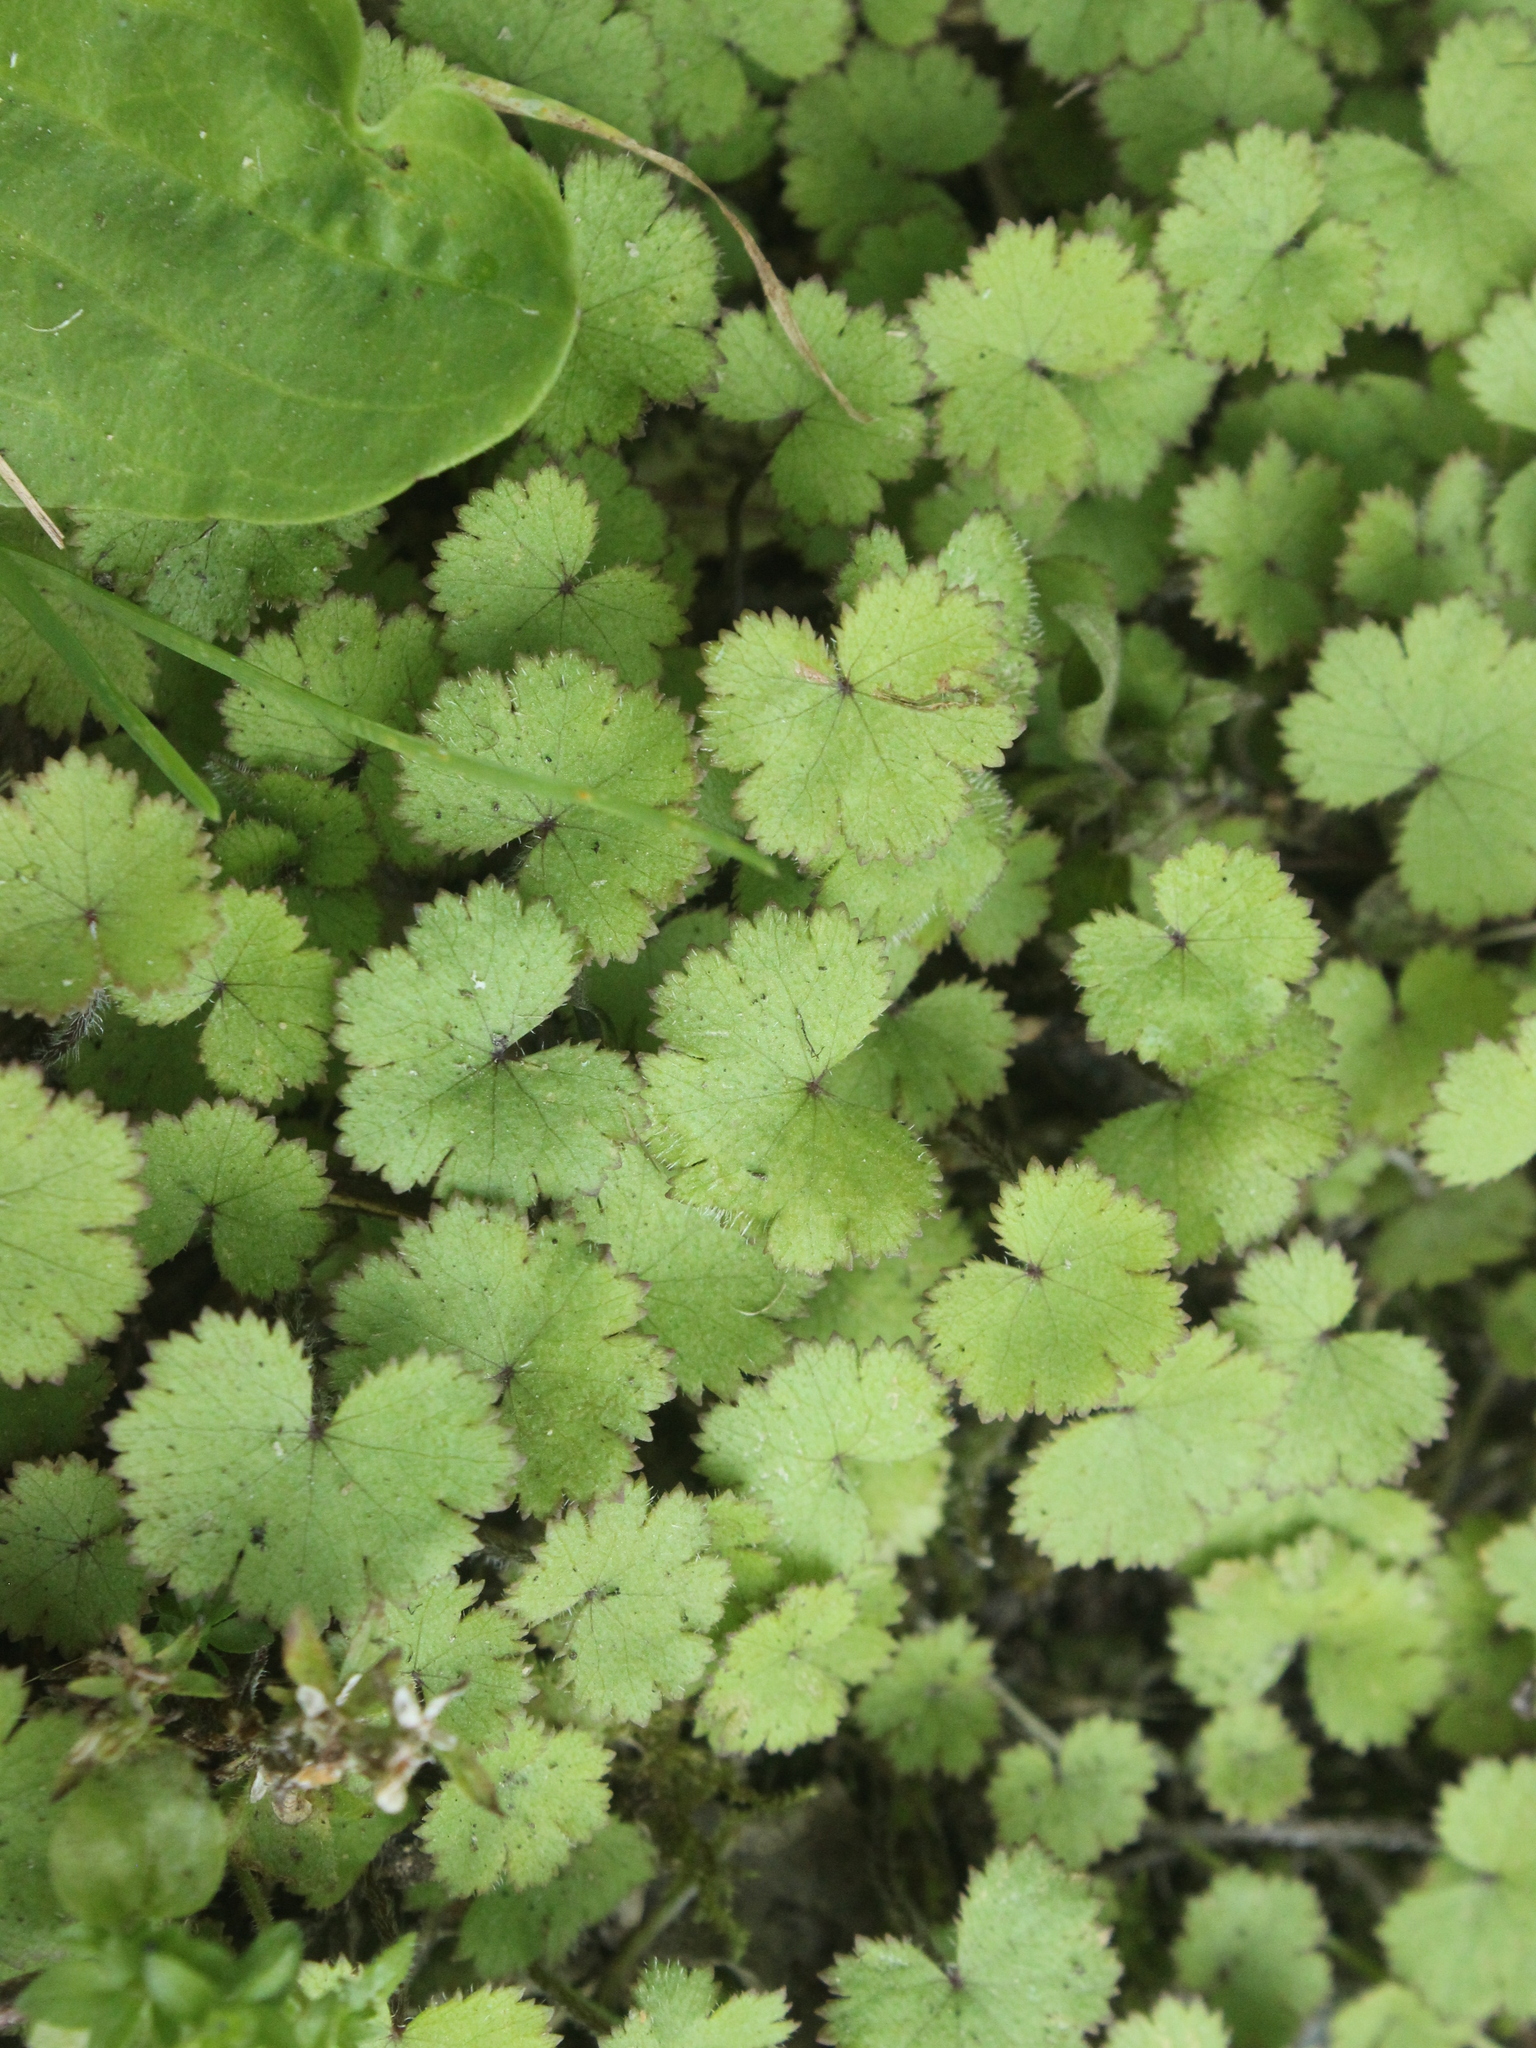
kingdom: Plantae
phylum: Tracheophyta
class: Magnoliopsida
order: Apiales
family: Araliaceae
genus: Hydrocotyle
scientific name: Hydrocotyle moschata
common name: Hairy pennywort
